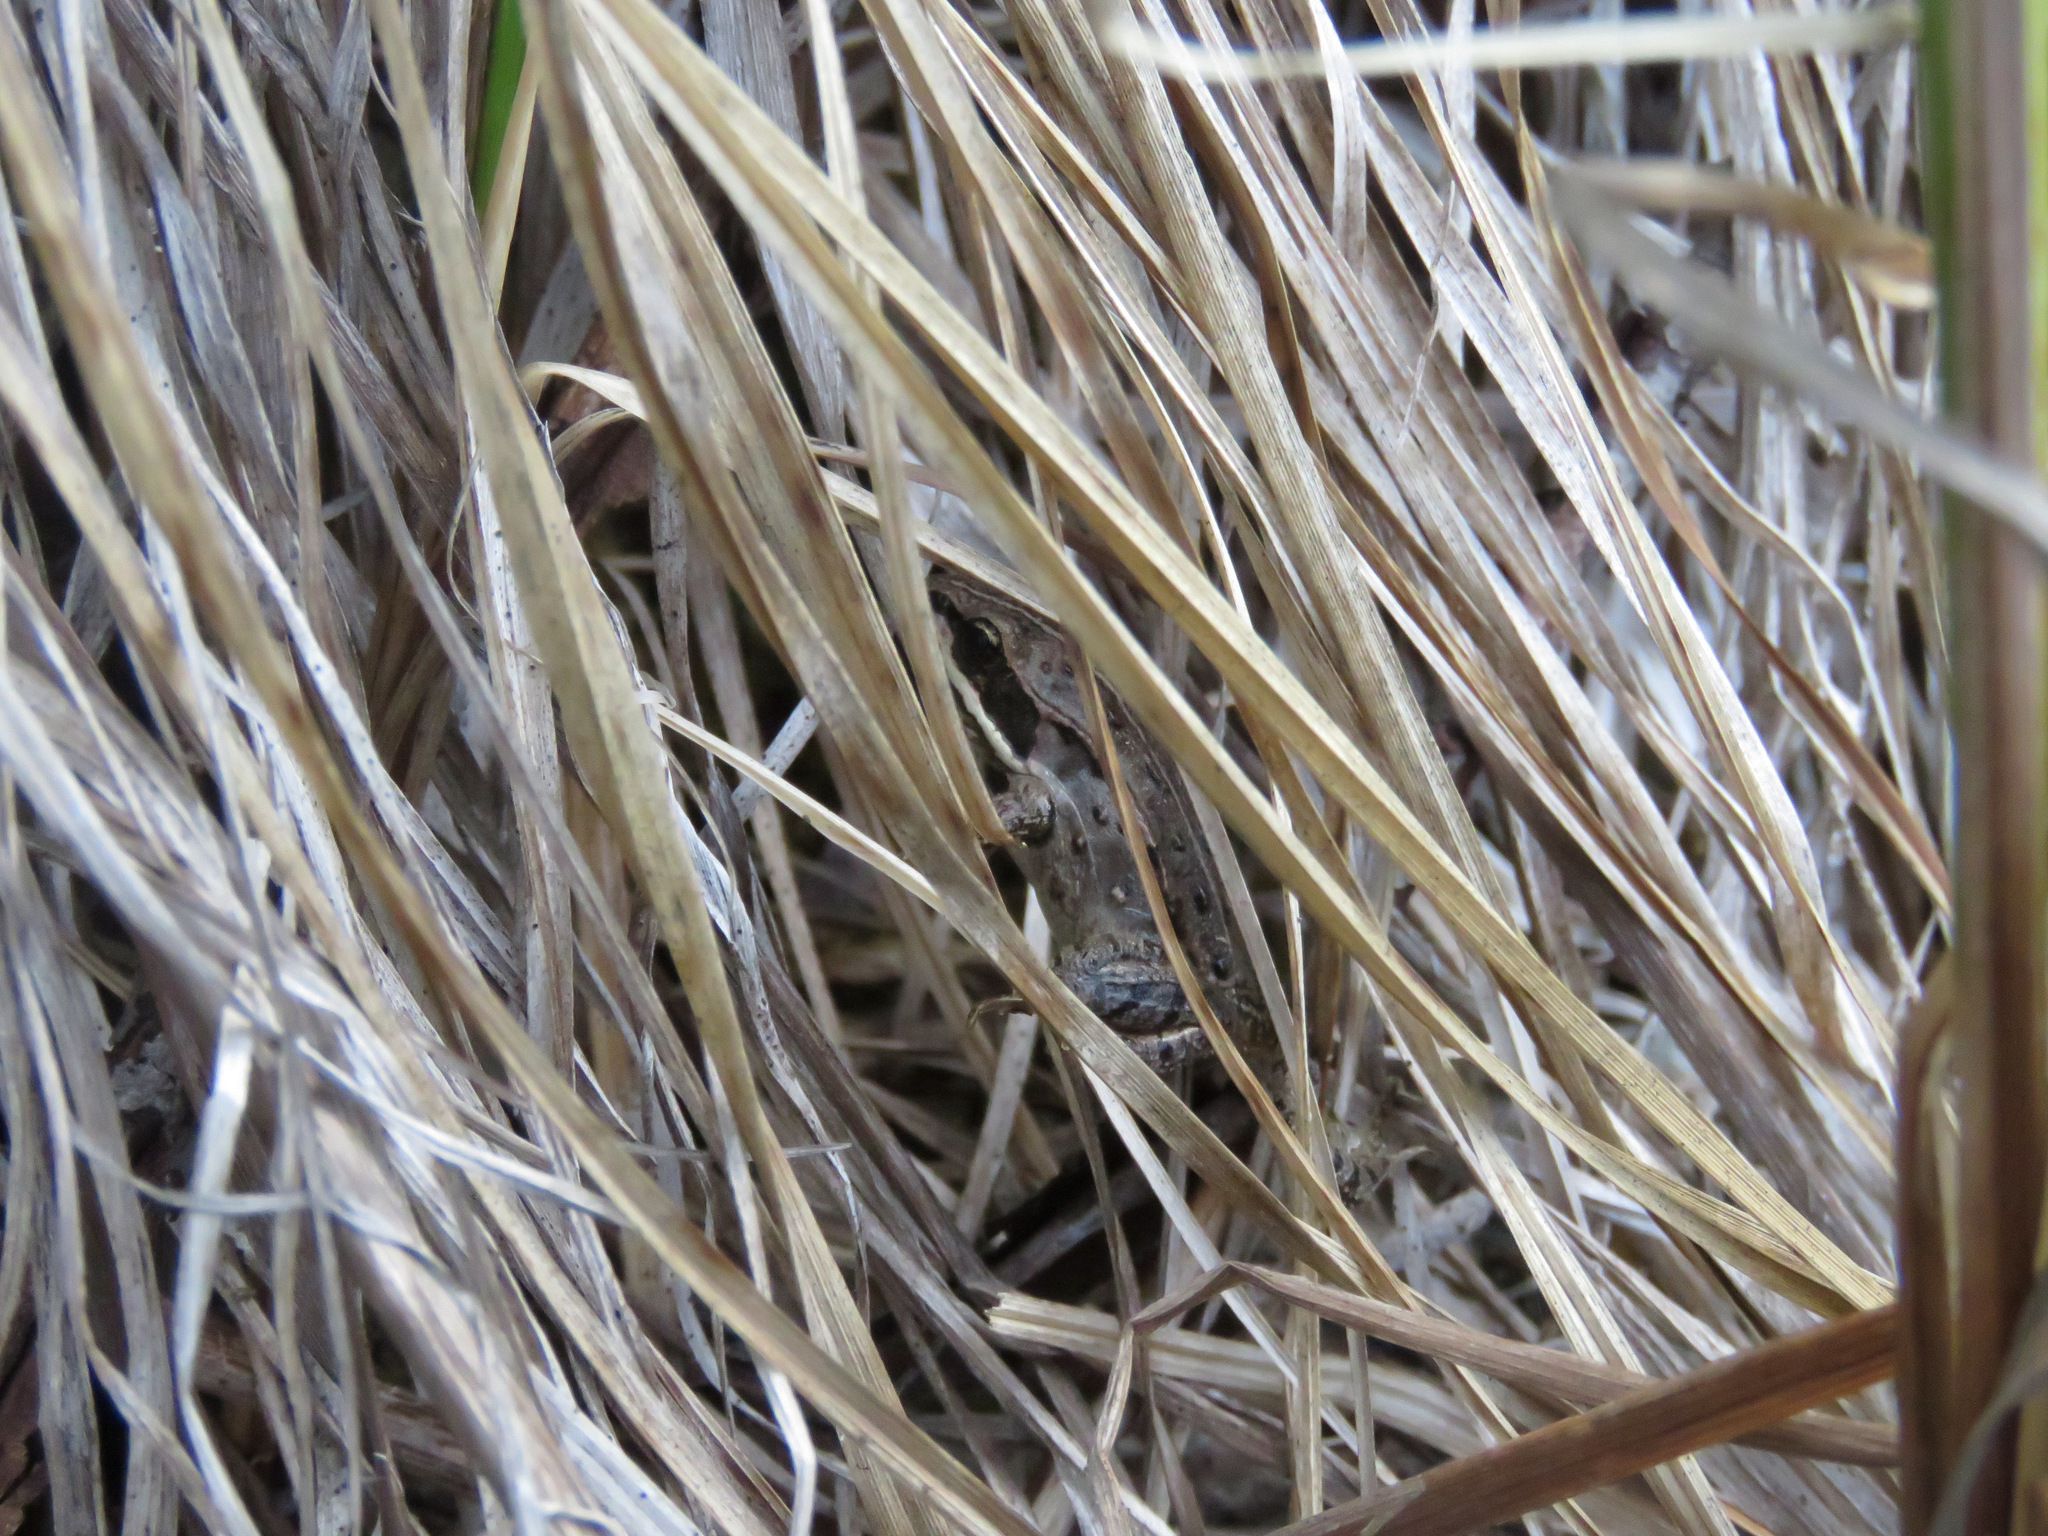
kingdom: Animalia
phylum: Chordata
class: Amphibia
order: Anura
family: Ranidae
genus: Lithobates
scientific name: Lithobates sylvaticus
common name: Wood frog
